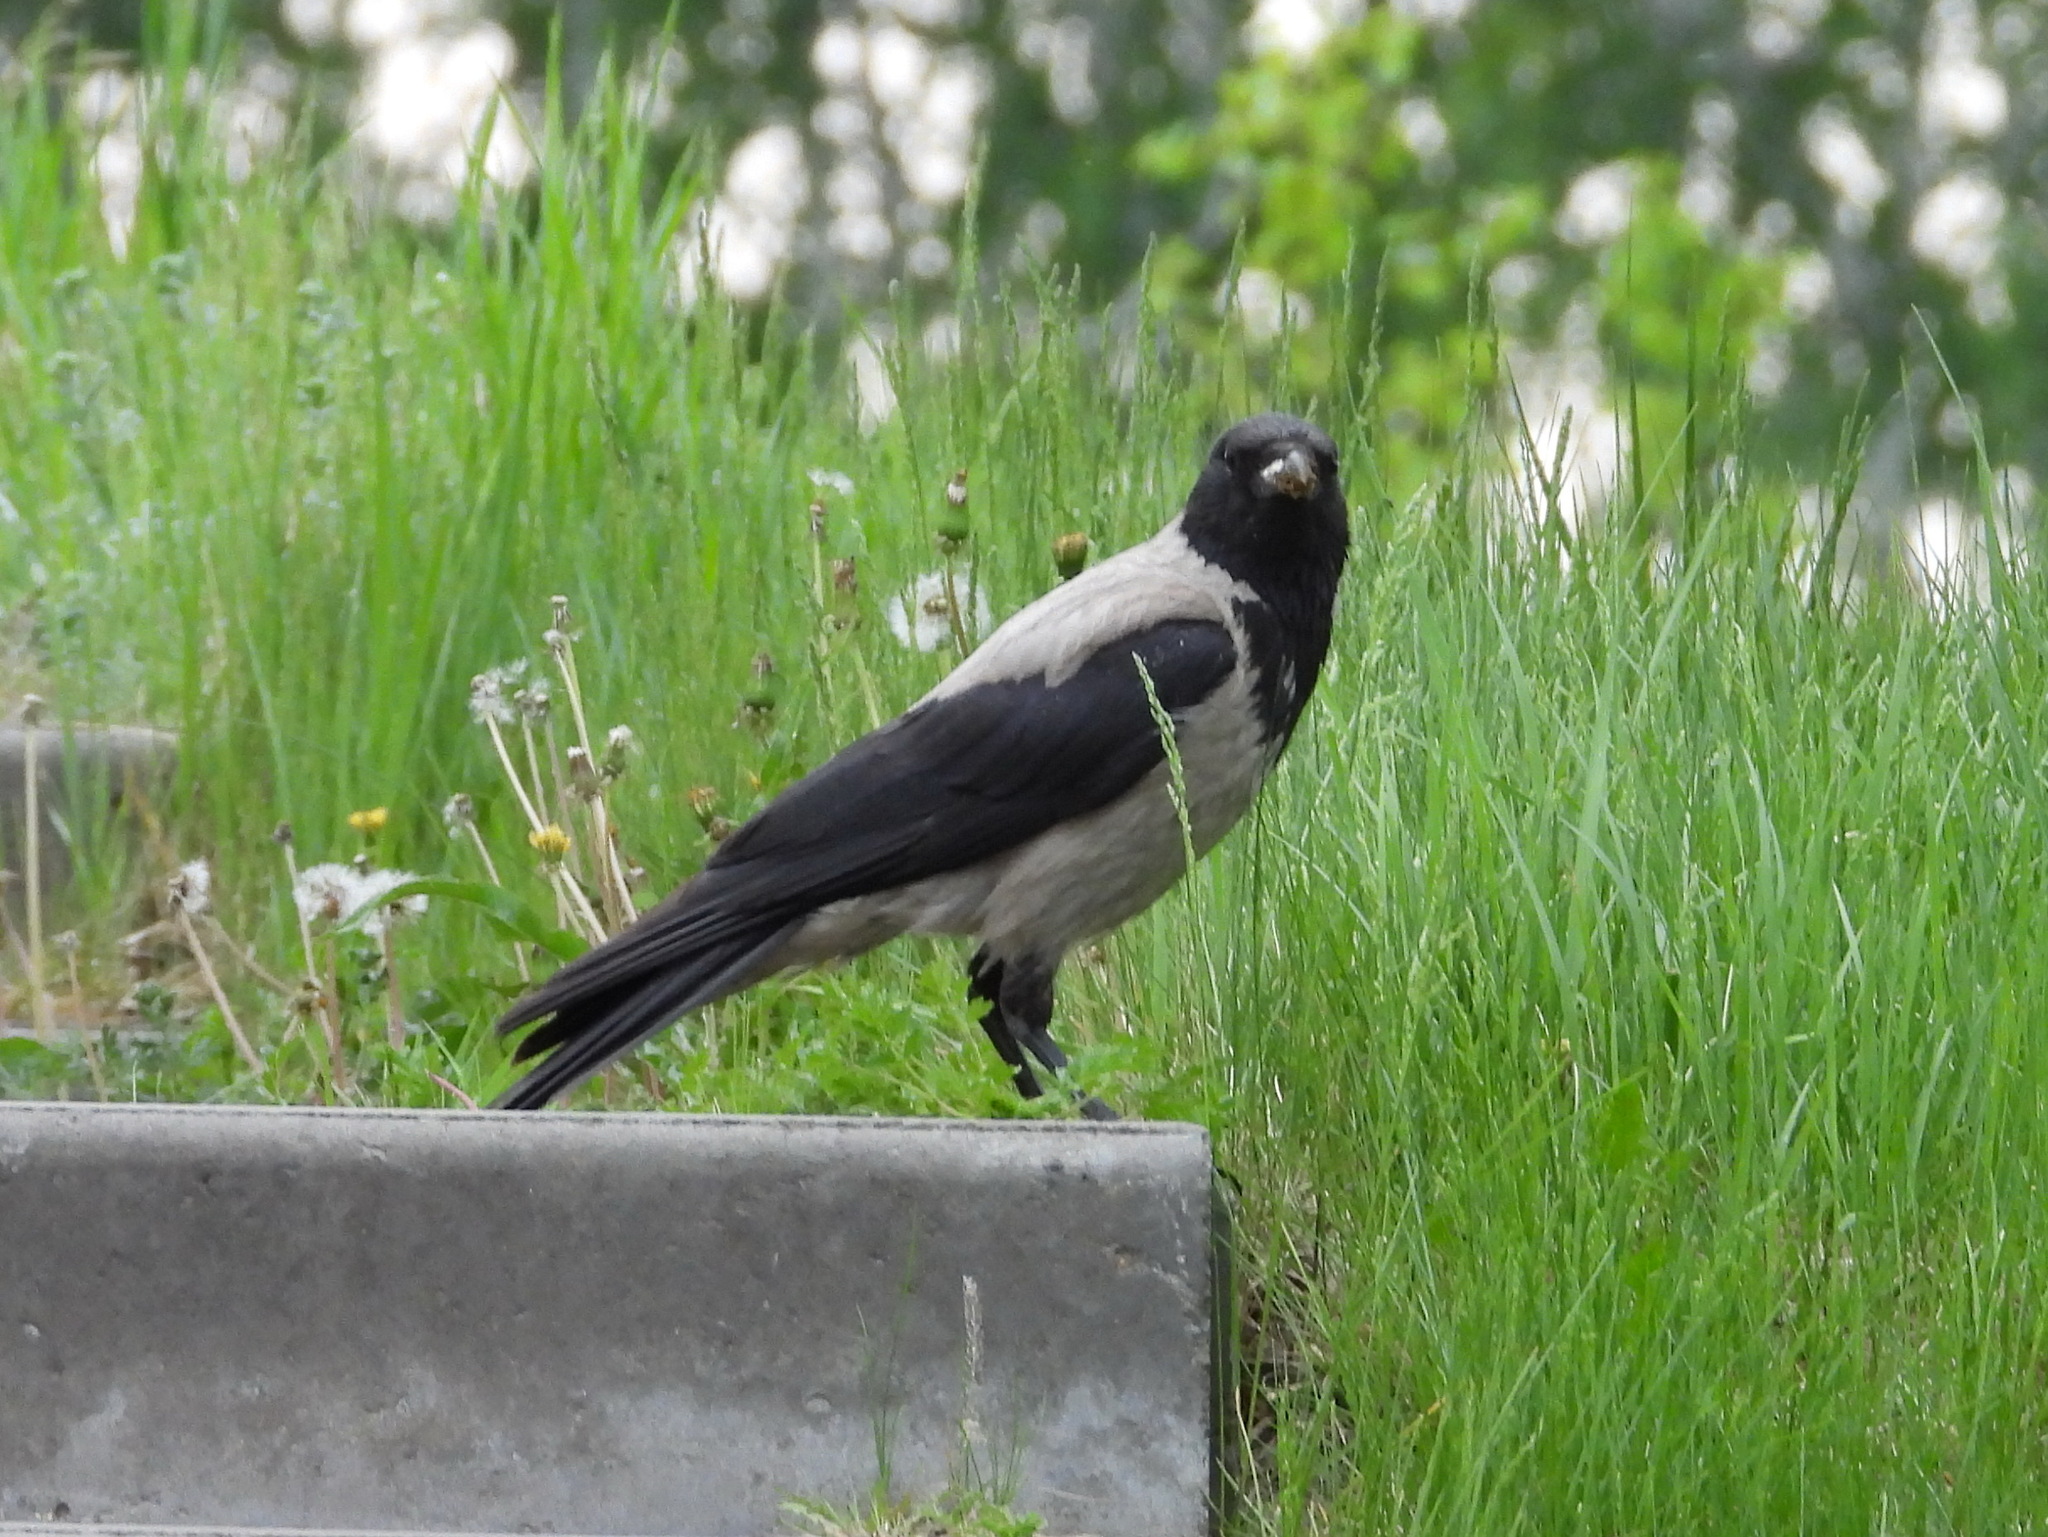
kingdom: Animalia
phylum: Chordata
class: Aves
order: Passeriformes
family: Corvidae
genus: Corvus
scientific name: Corvus cornix
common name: Hooded crow
